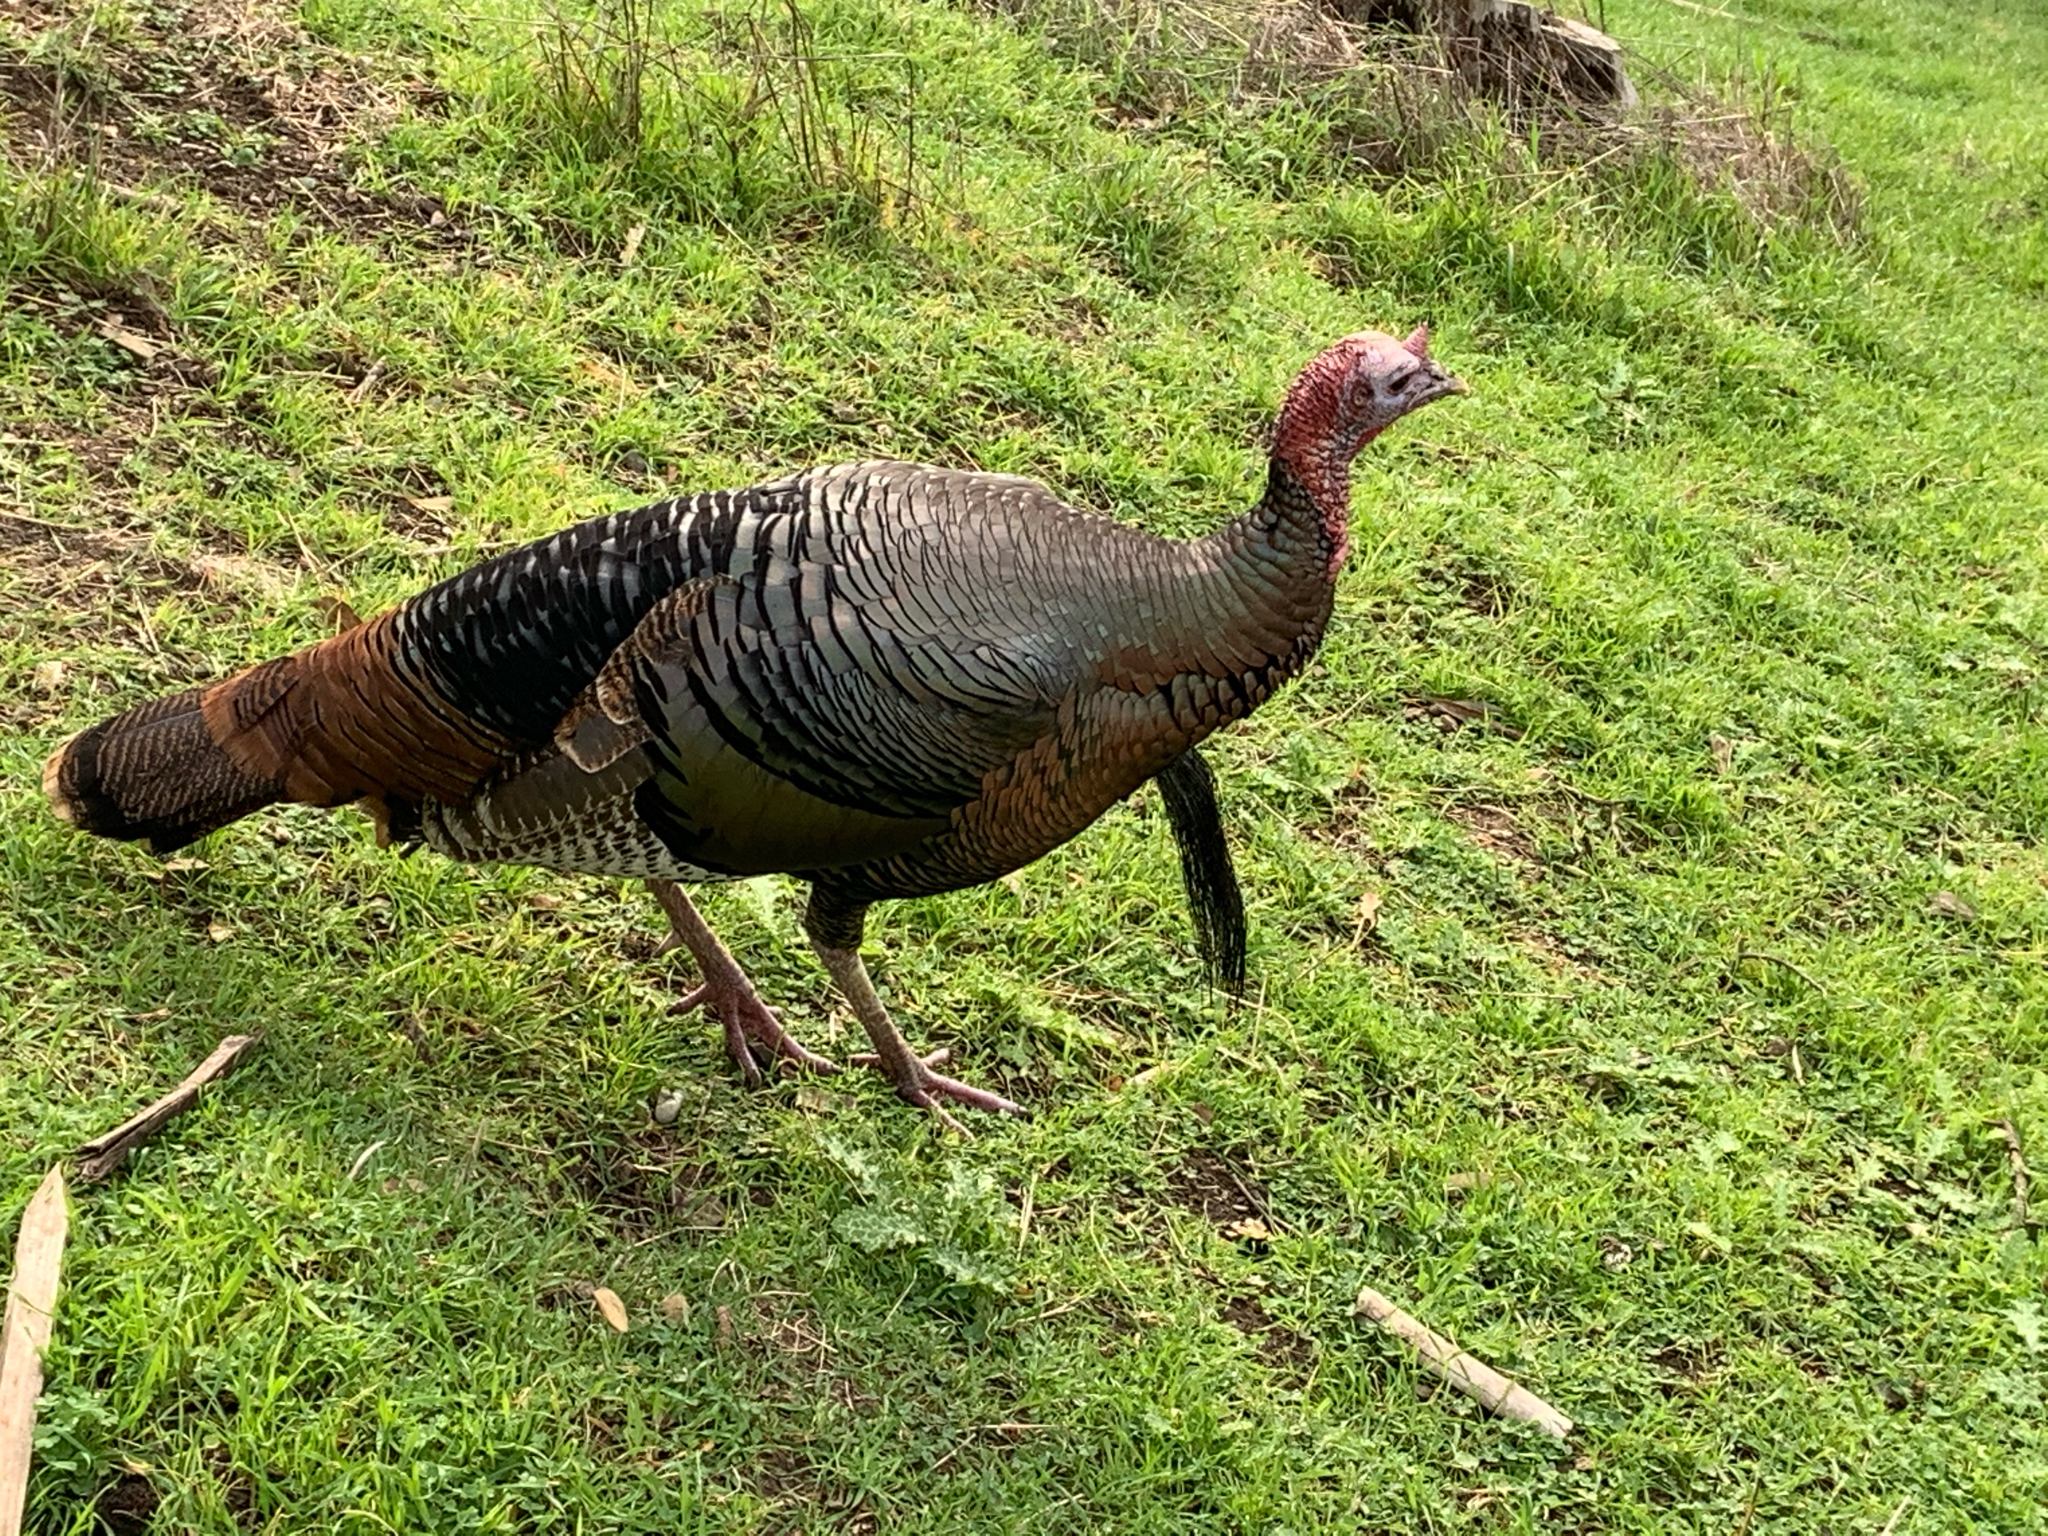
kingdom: Animalia
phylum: Chordata
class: Aves
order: Galliformes
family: Phasianidae
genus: Meleagris
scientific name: Meleagris gallopavo
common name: Wild turkey
